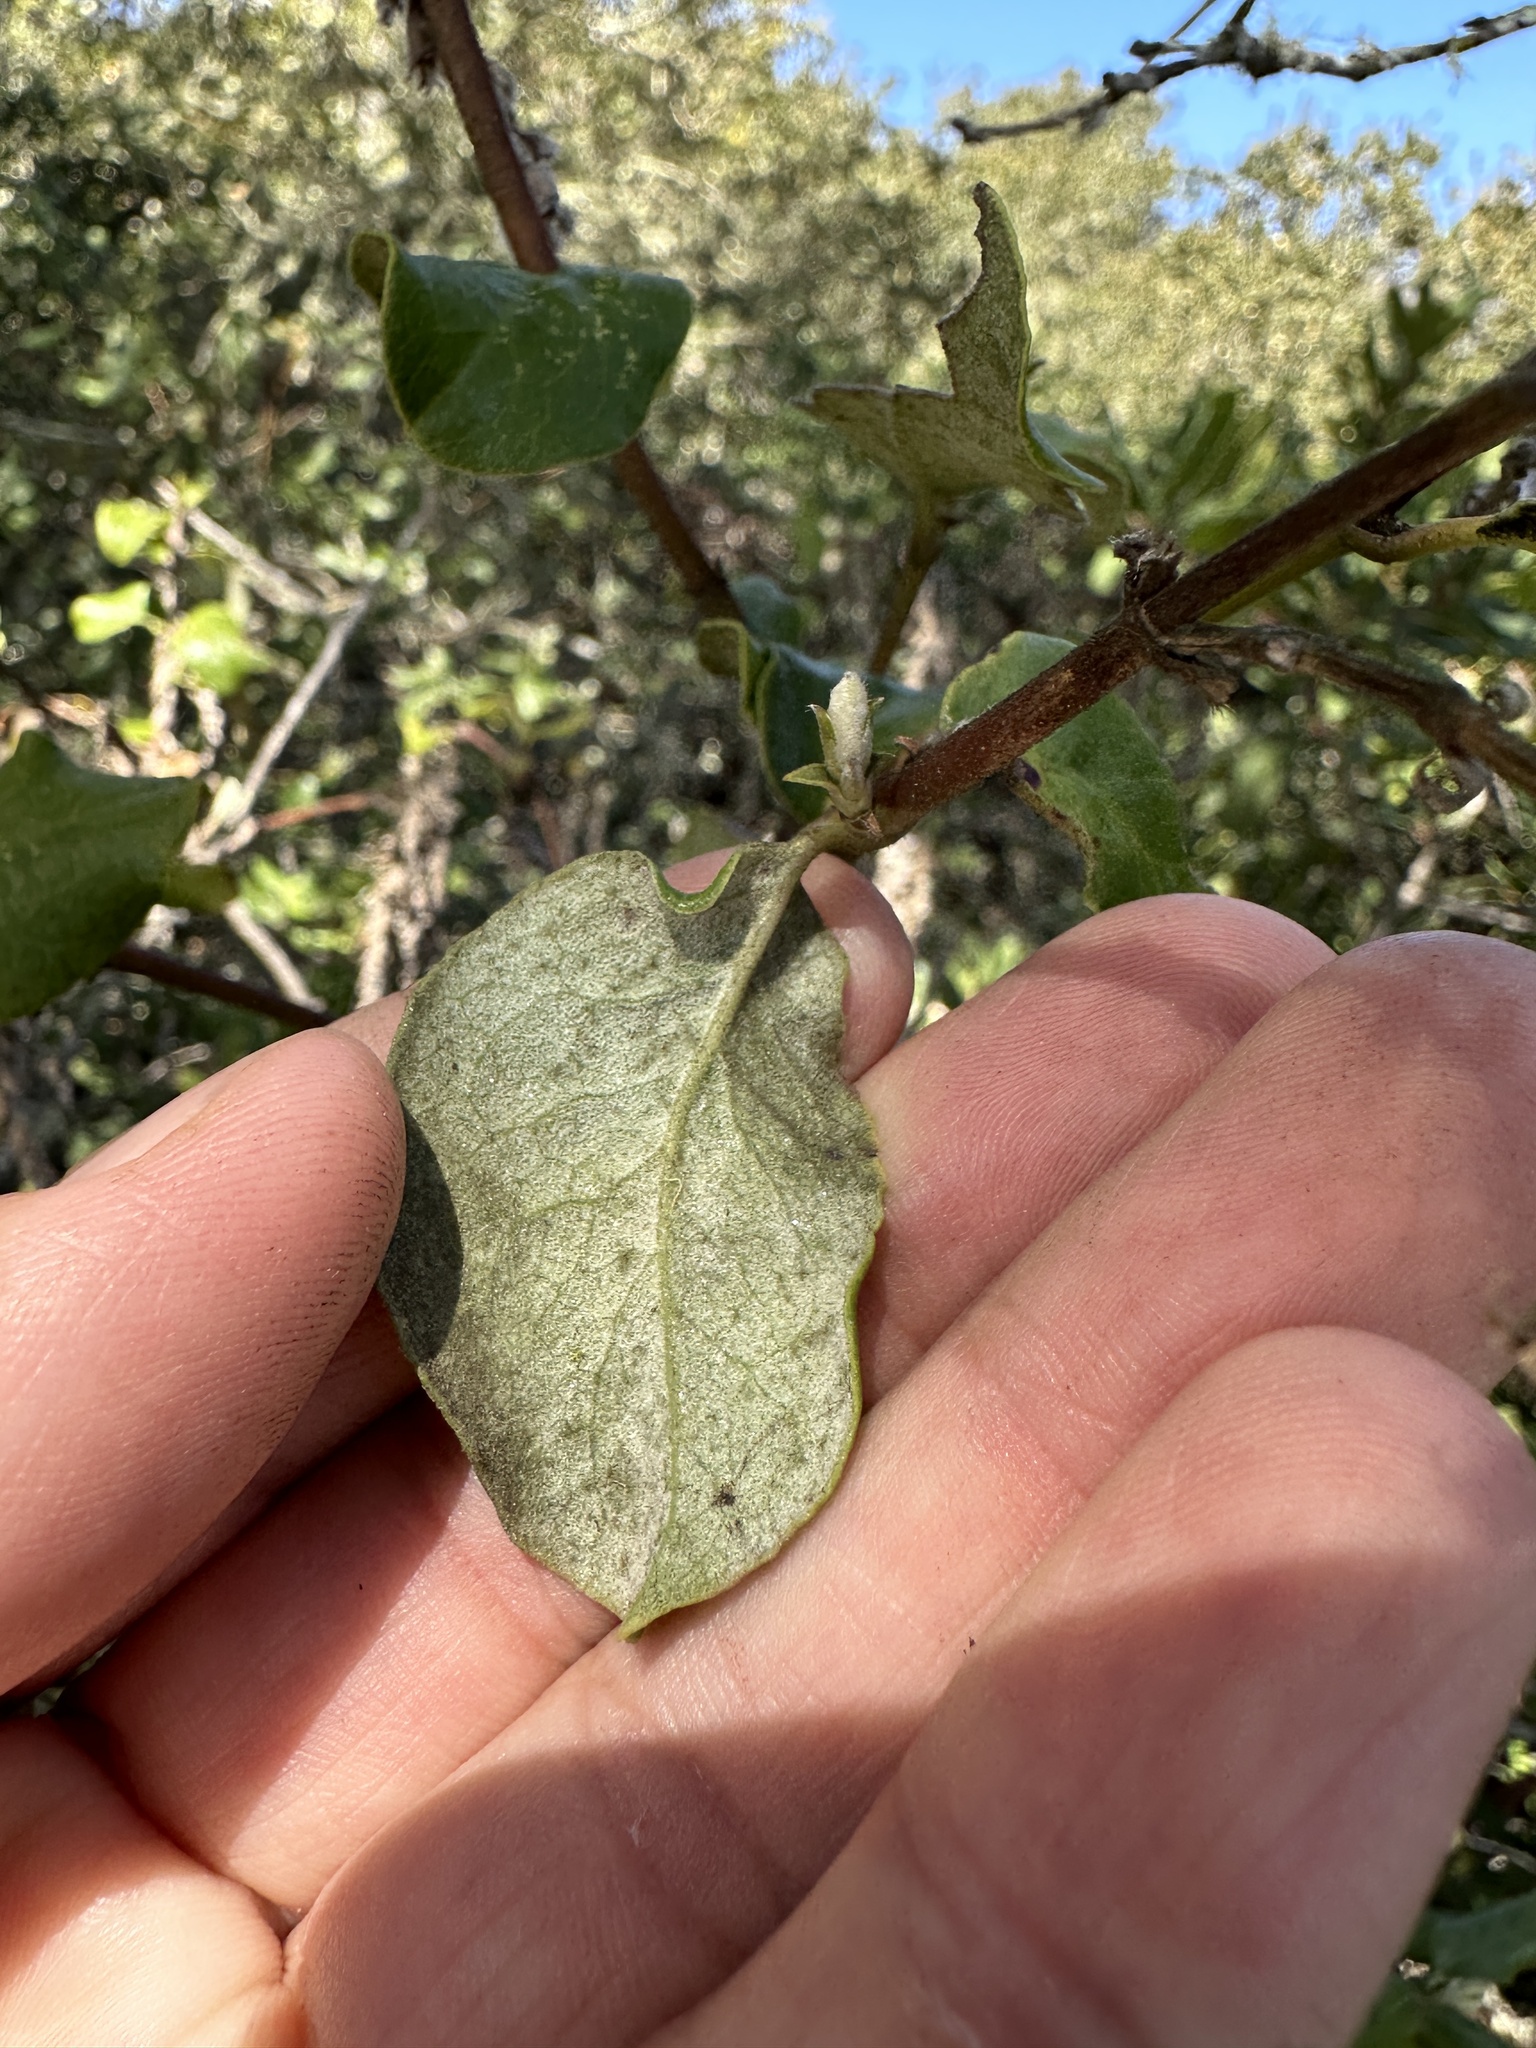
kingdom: Plantae
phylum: Tracheophyta
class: Magnoliopsida
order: Garryales
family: Garryaceae
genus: Garrya
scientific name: Garrya elliptica
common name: Silk-tassel
